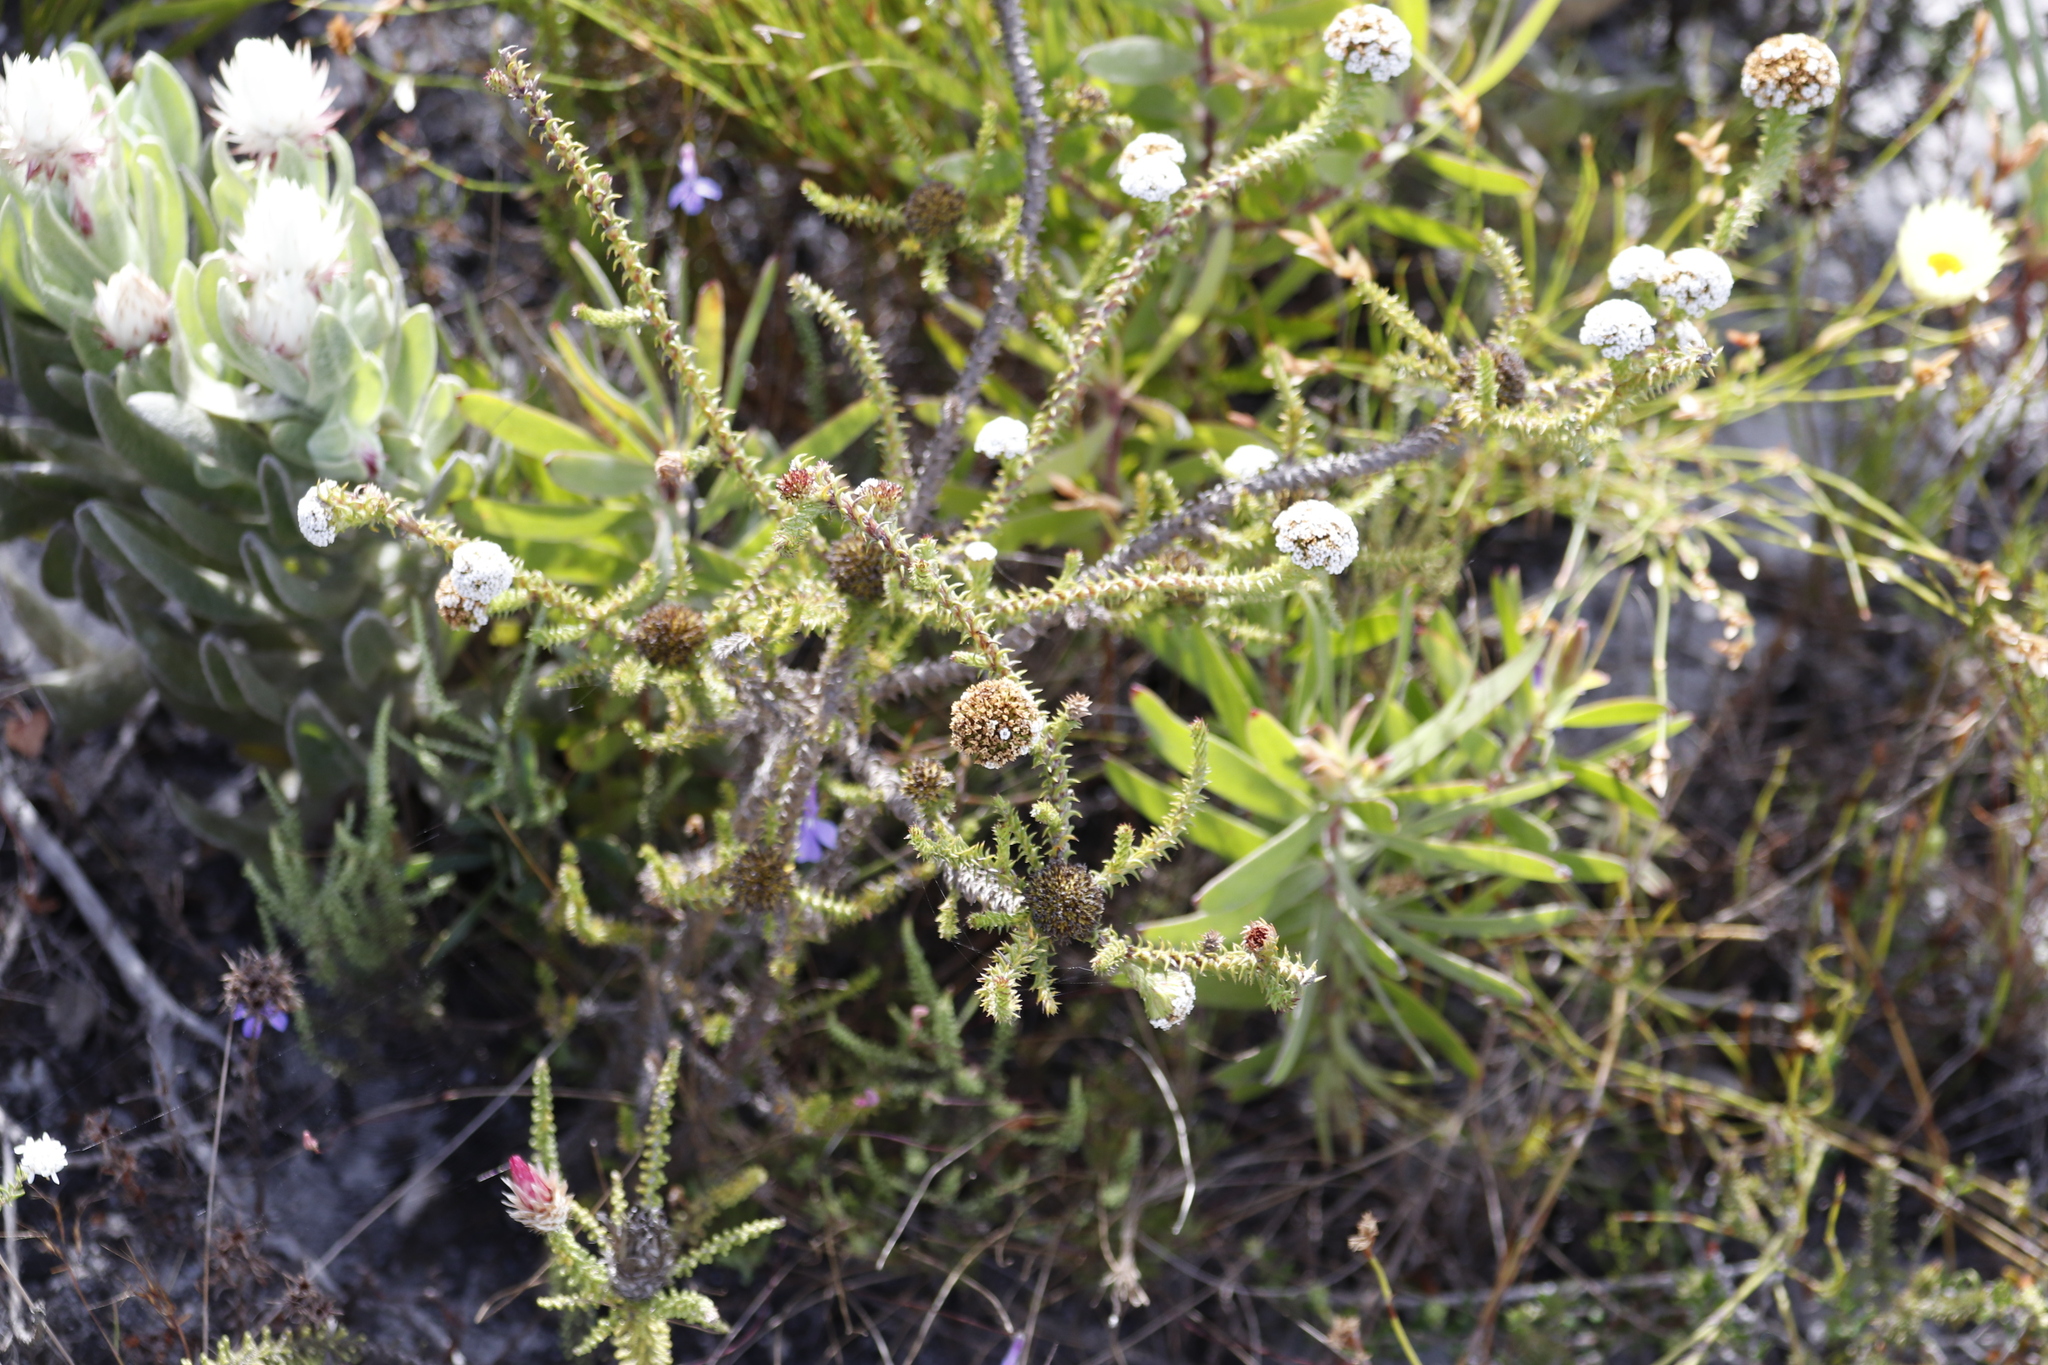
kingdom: Plantae
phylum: Tracheophyta
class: Magnoliopsida
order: Asterales
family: Asteraceae
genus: Stoebe
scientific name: Stoebe aethiopica
